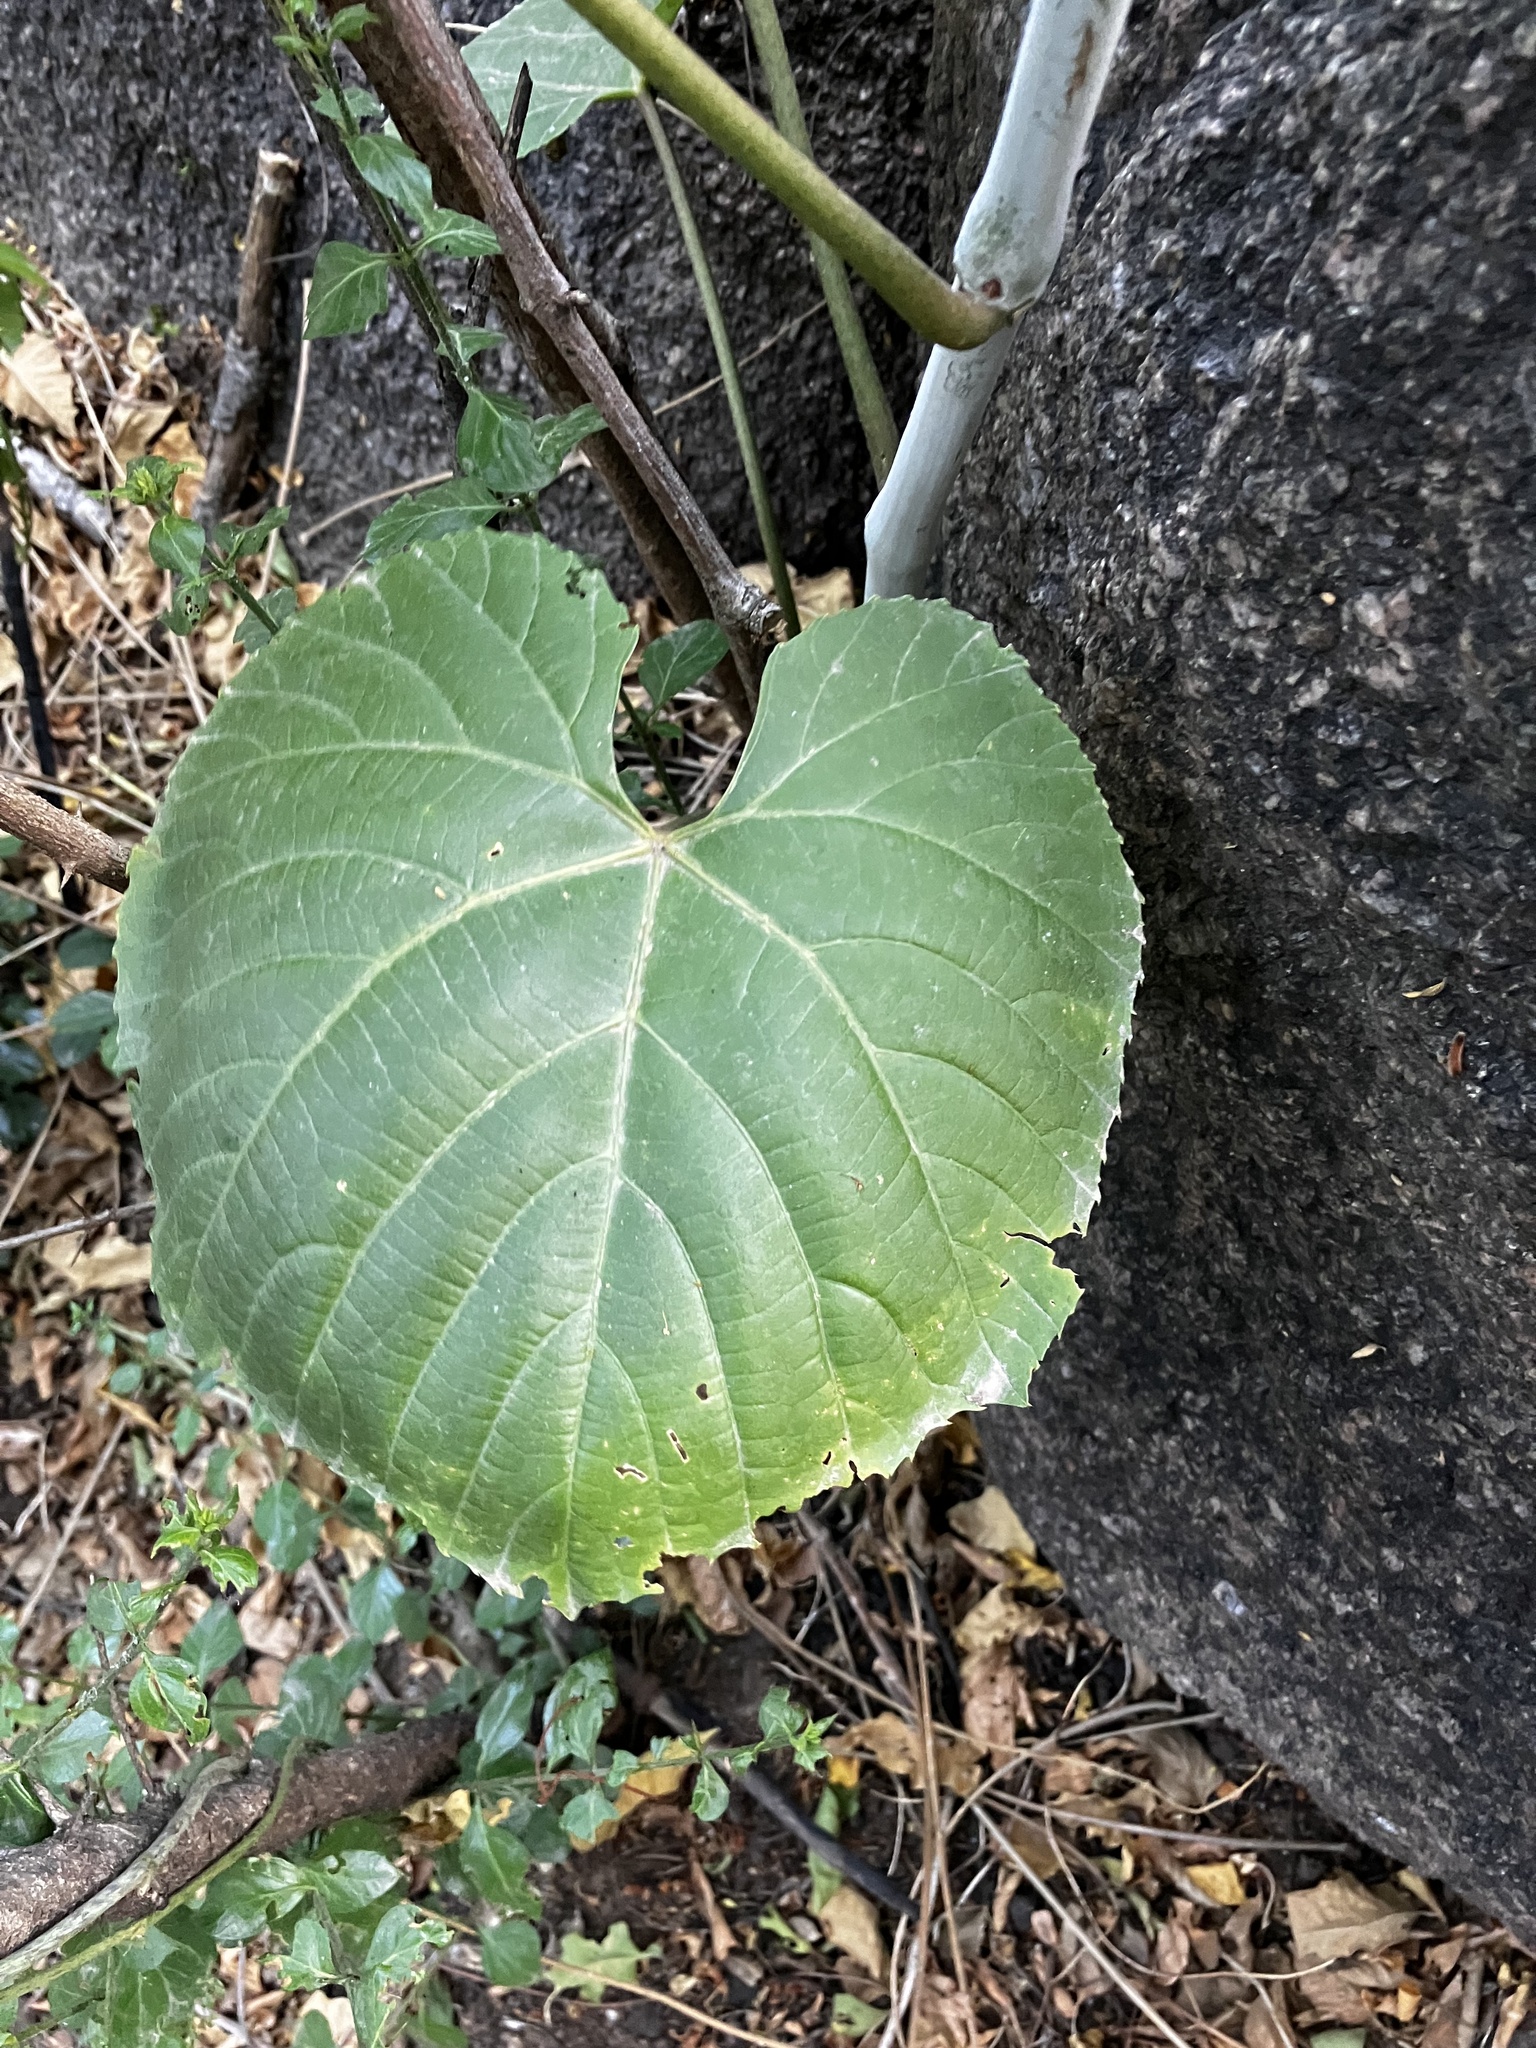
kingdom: Plantae
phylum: Tracheophyta
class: Magnoliopsida
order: Vitales
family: Vitaceae
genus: Cissus
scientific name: Cissus arnottiana
